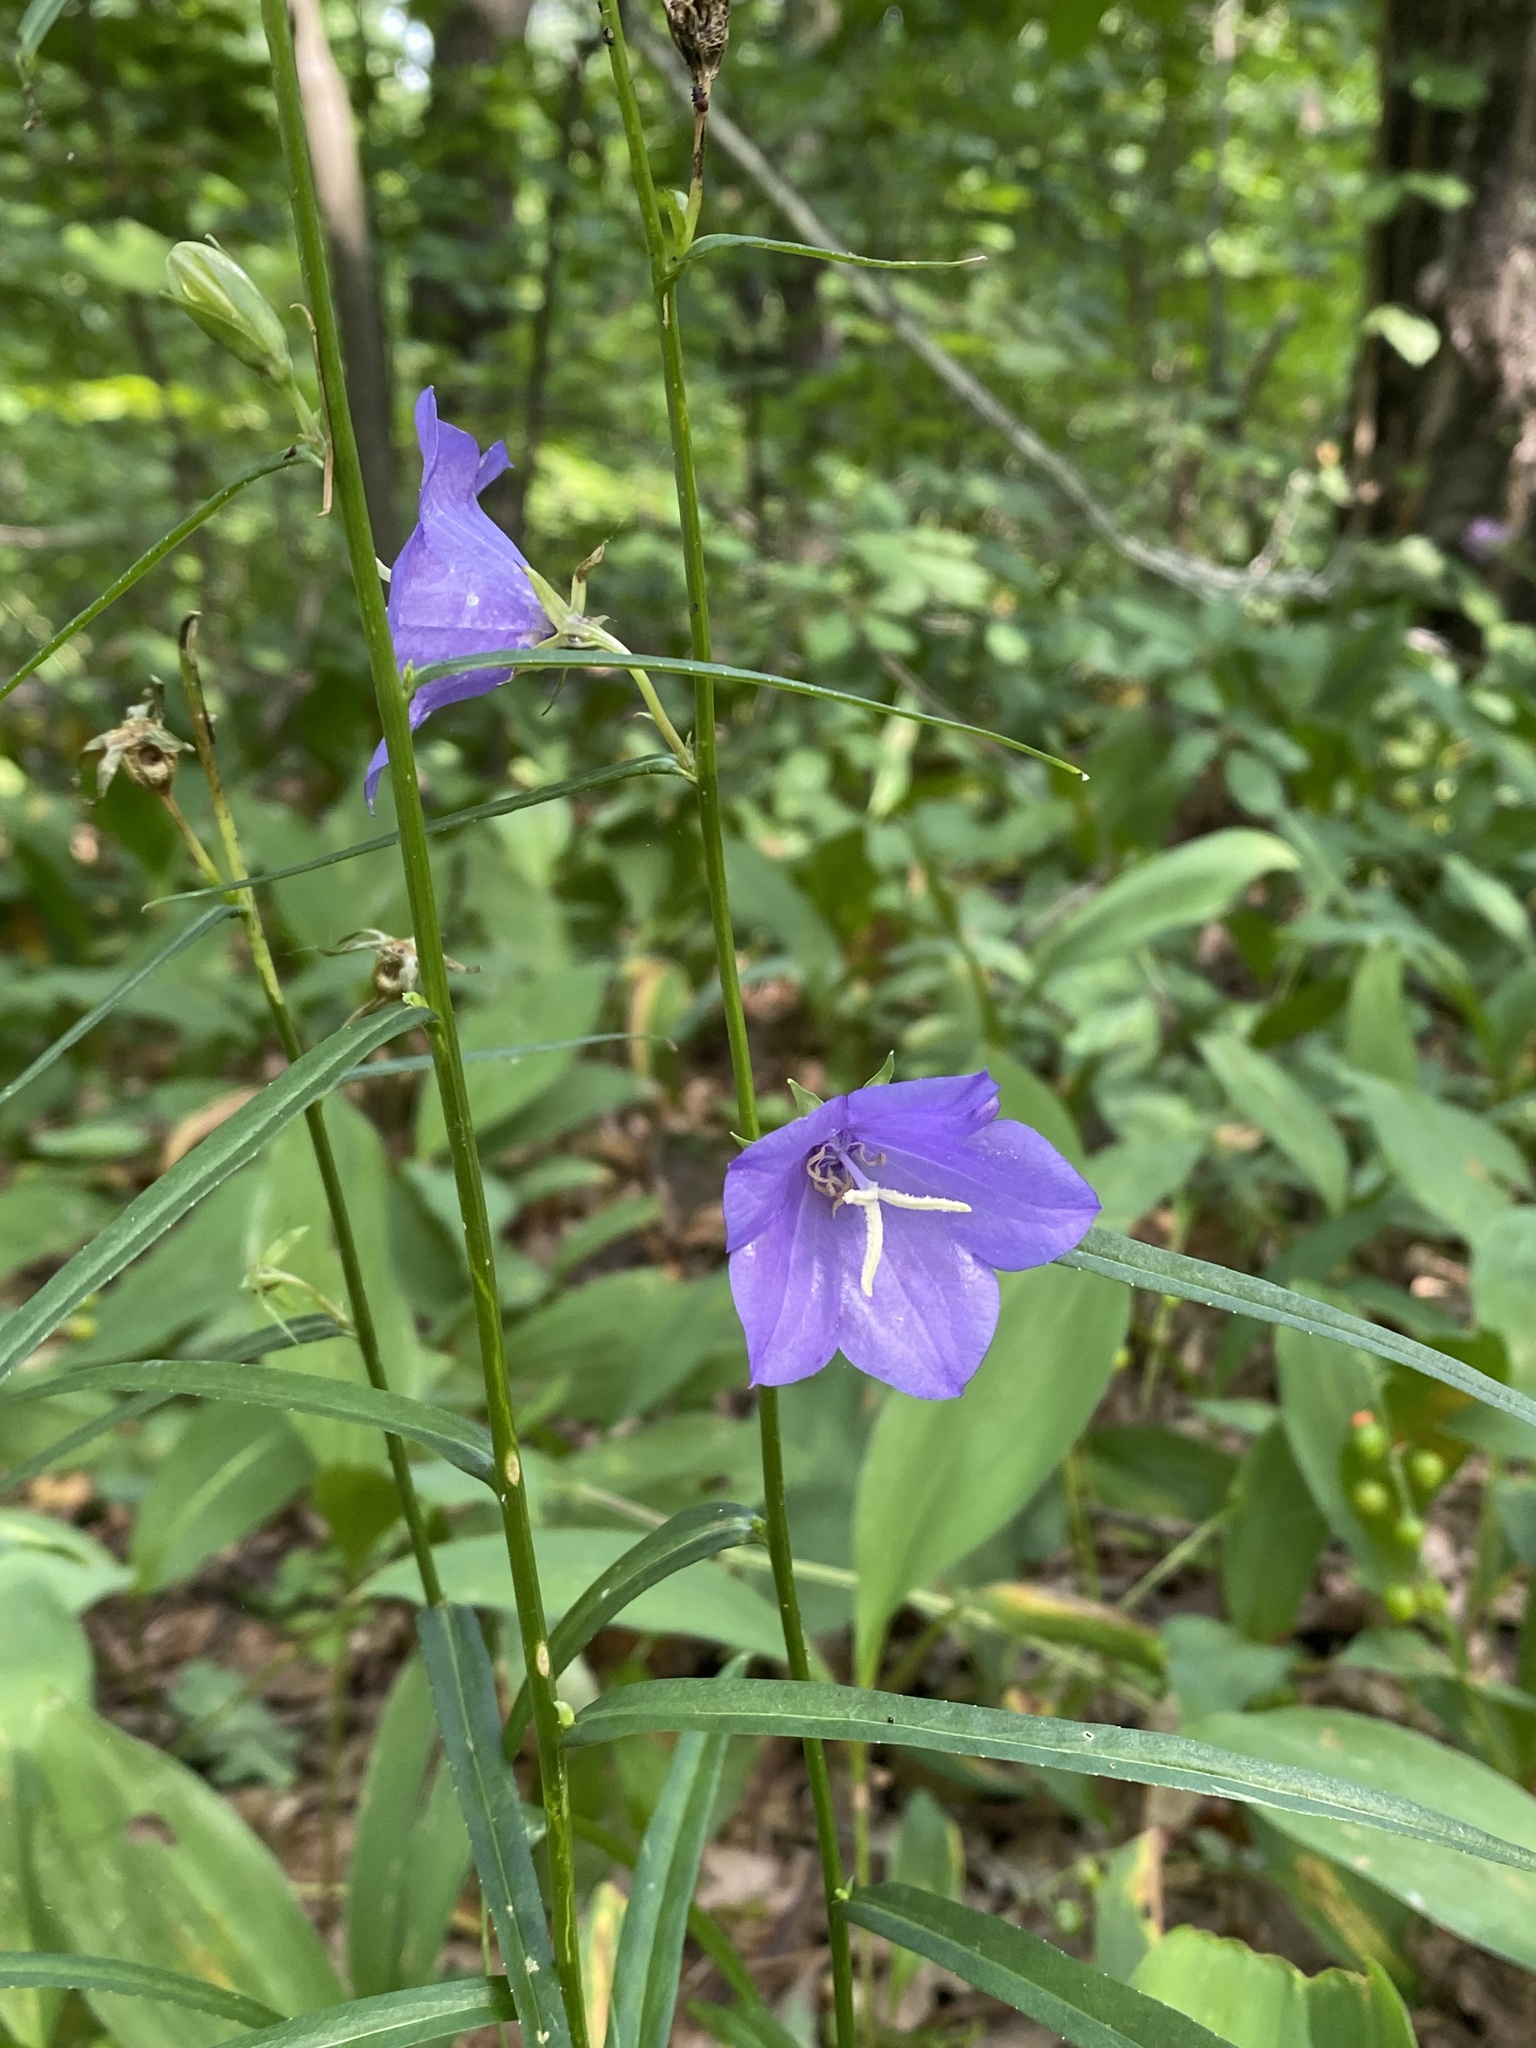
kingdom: Plantae
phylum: Tracheophyta
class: Magnoliopsida
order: Asterales
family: Campanulaceae
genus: Campanula
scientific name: Campanula persicifolia
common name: Peach-leaved bellflower
